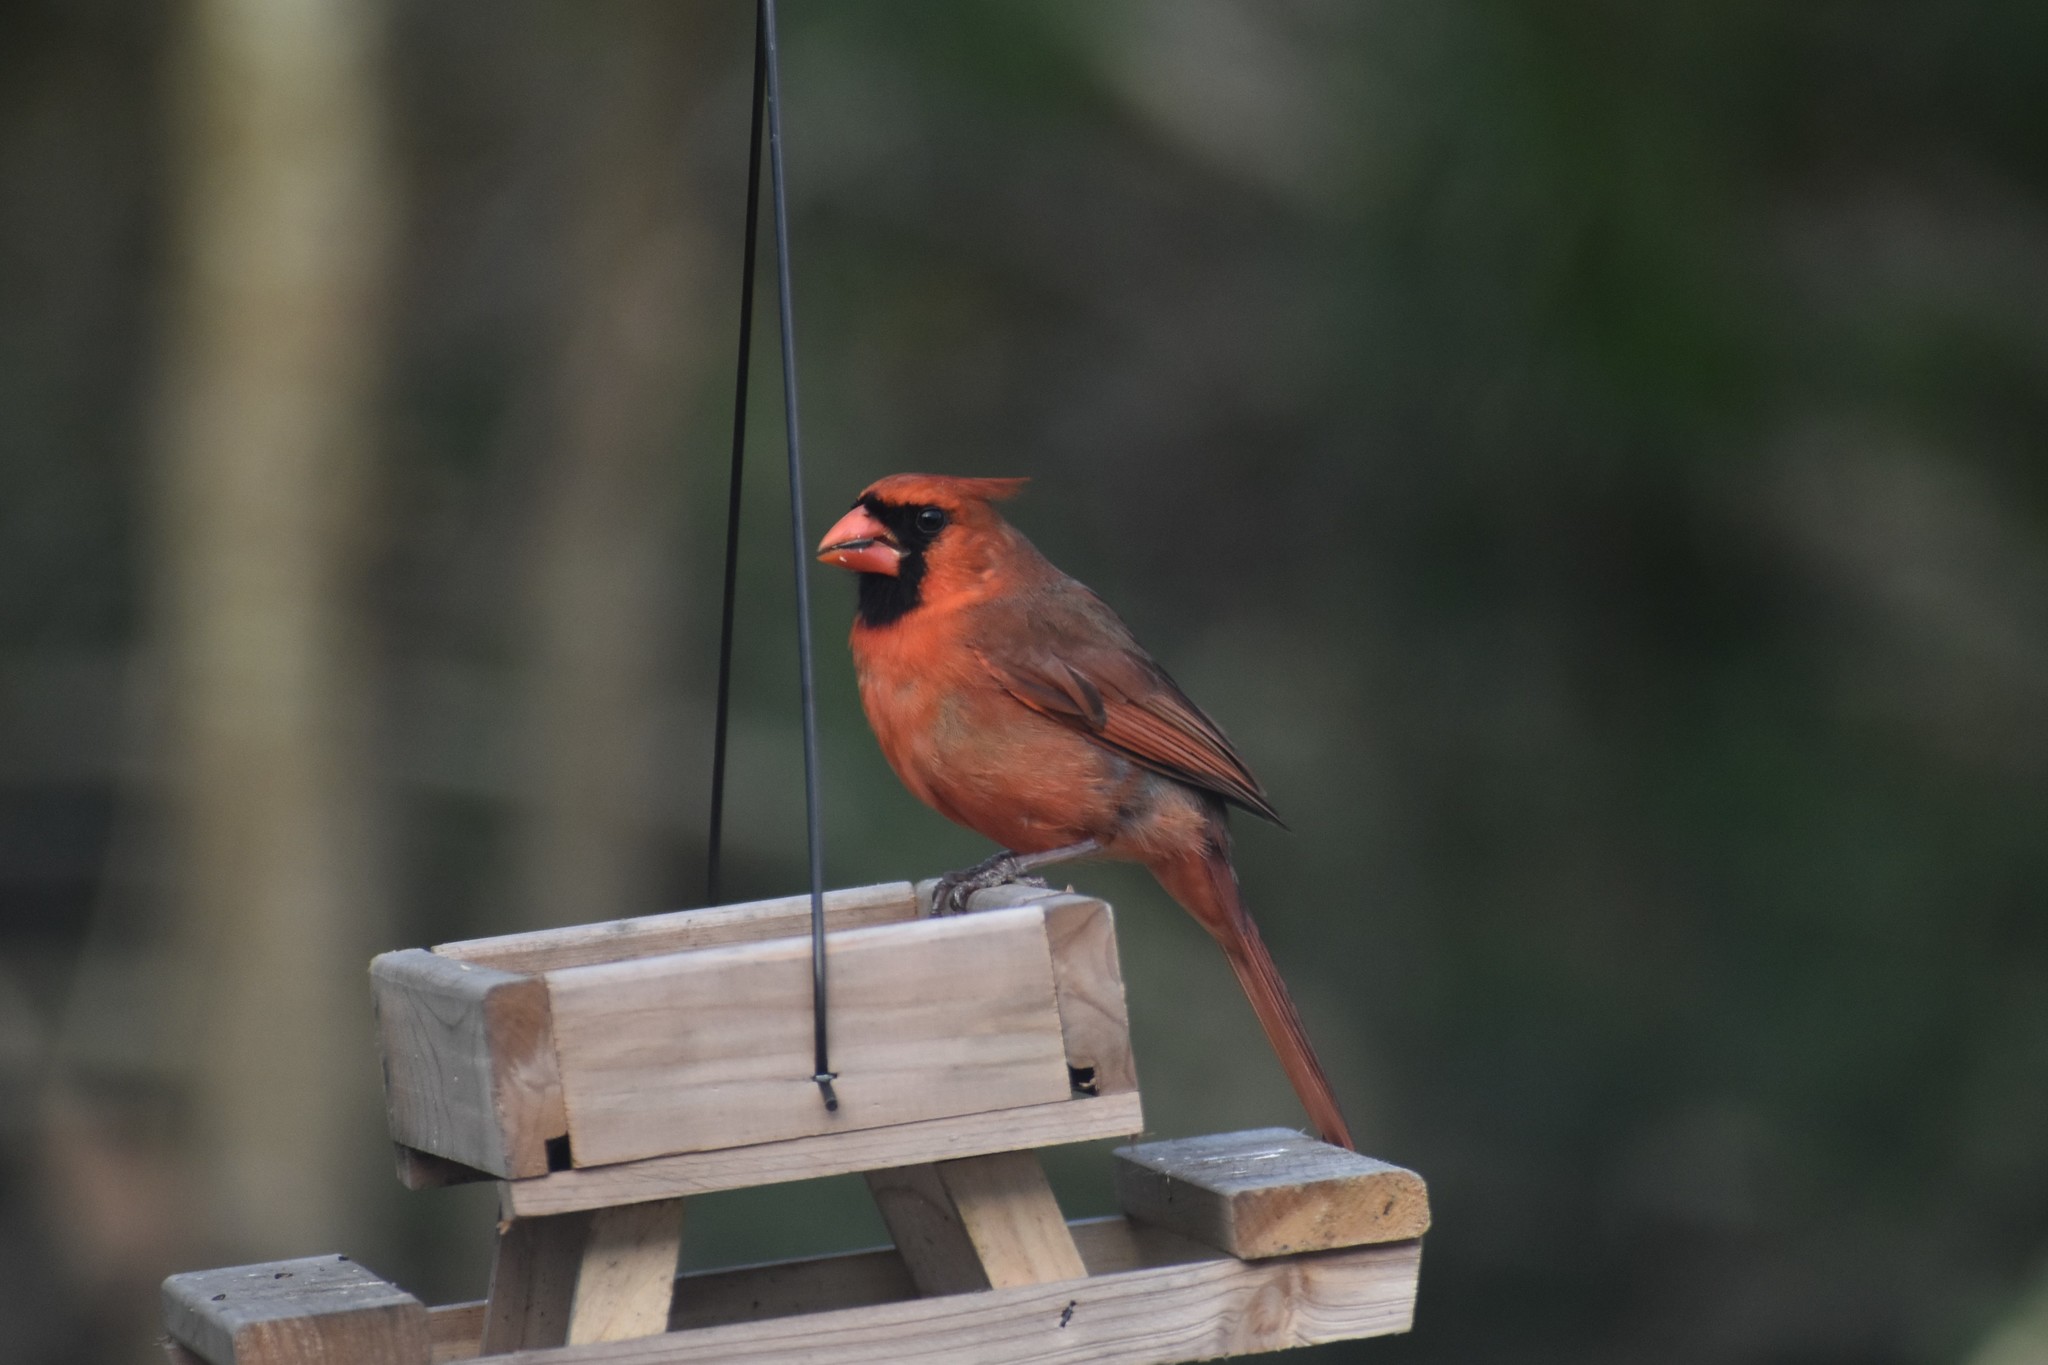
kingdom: Animalia
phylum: Chordata
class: Aves
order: Passeriformes
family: Cardinalidae
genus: Cardinalis
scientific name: Cardinalis cardinalis
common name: Northern cardinal
